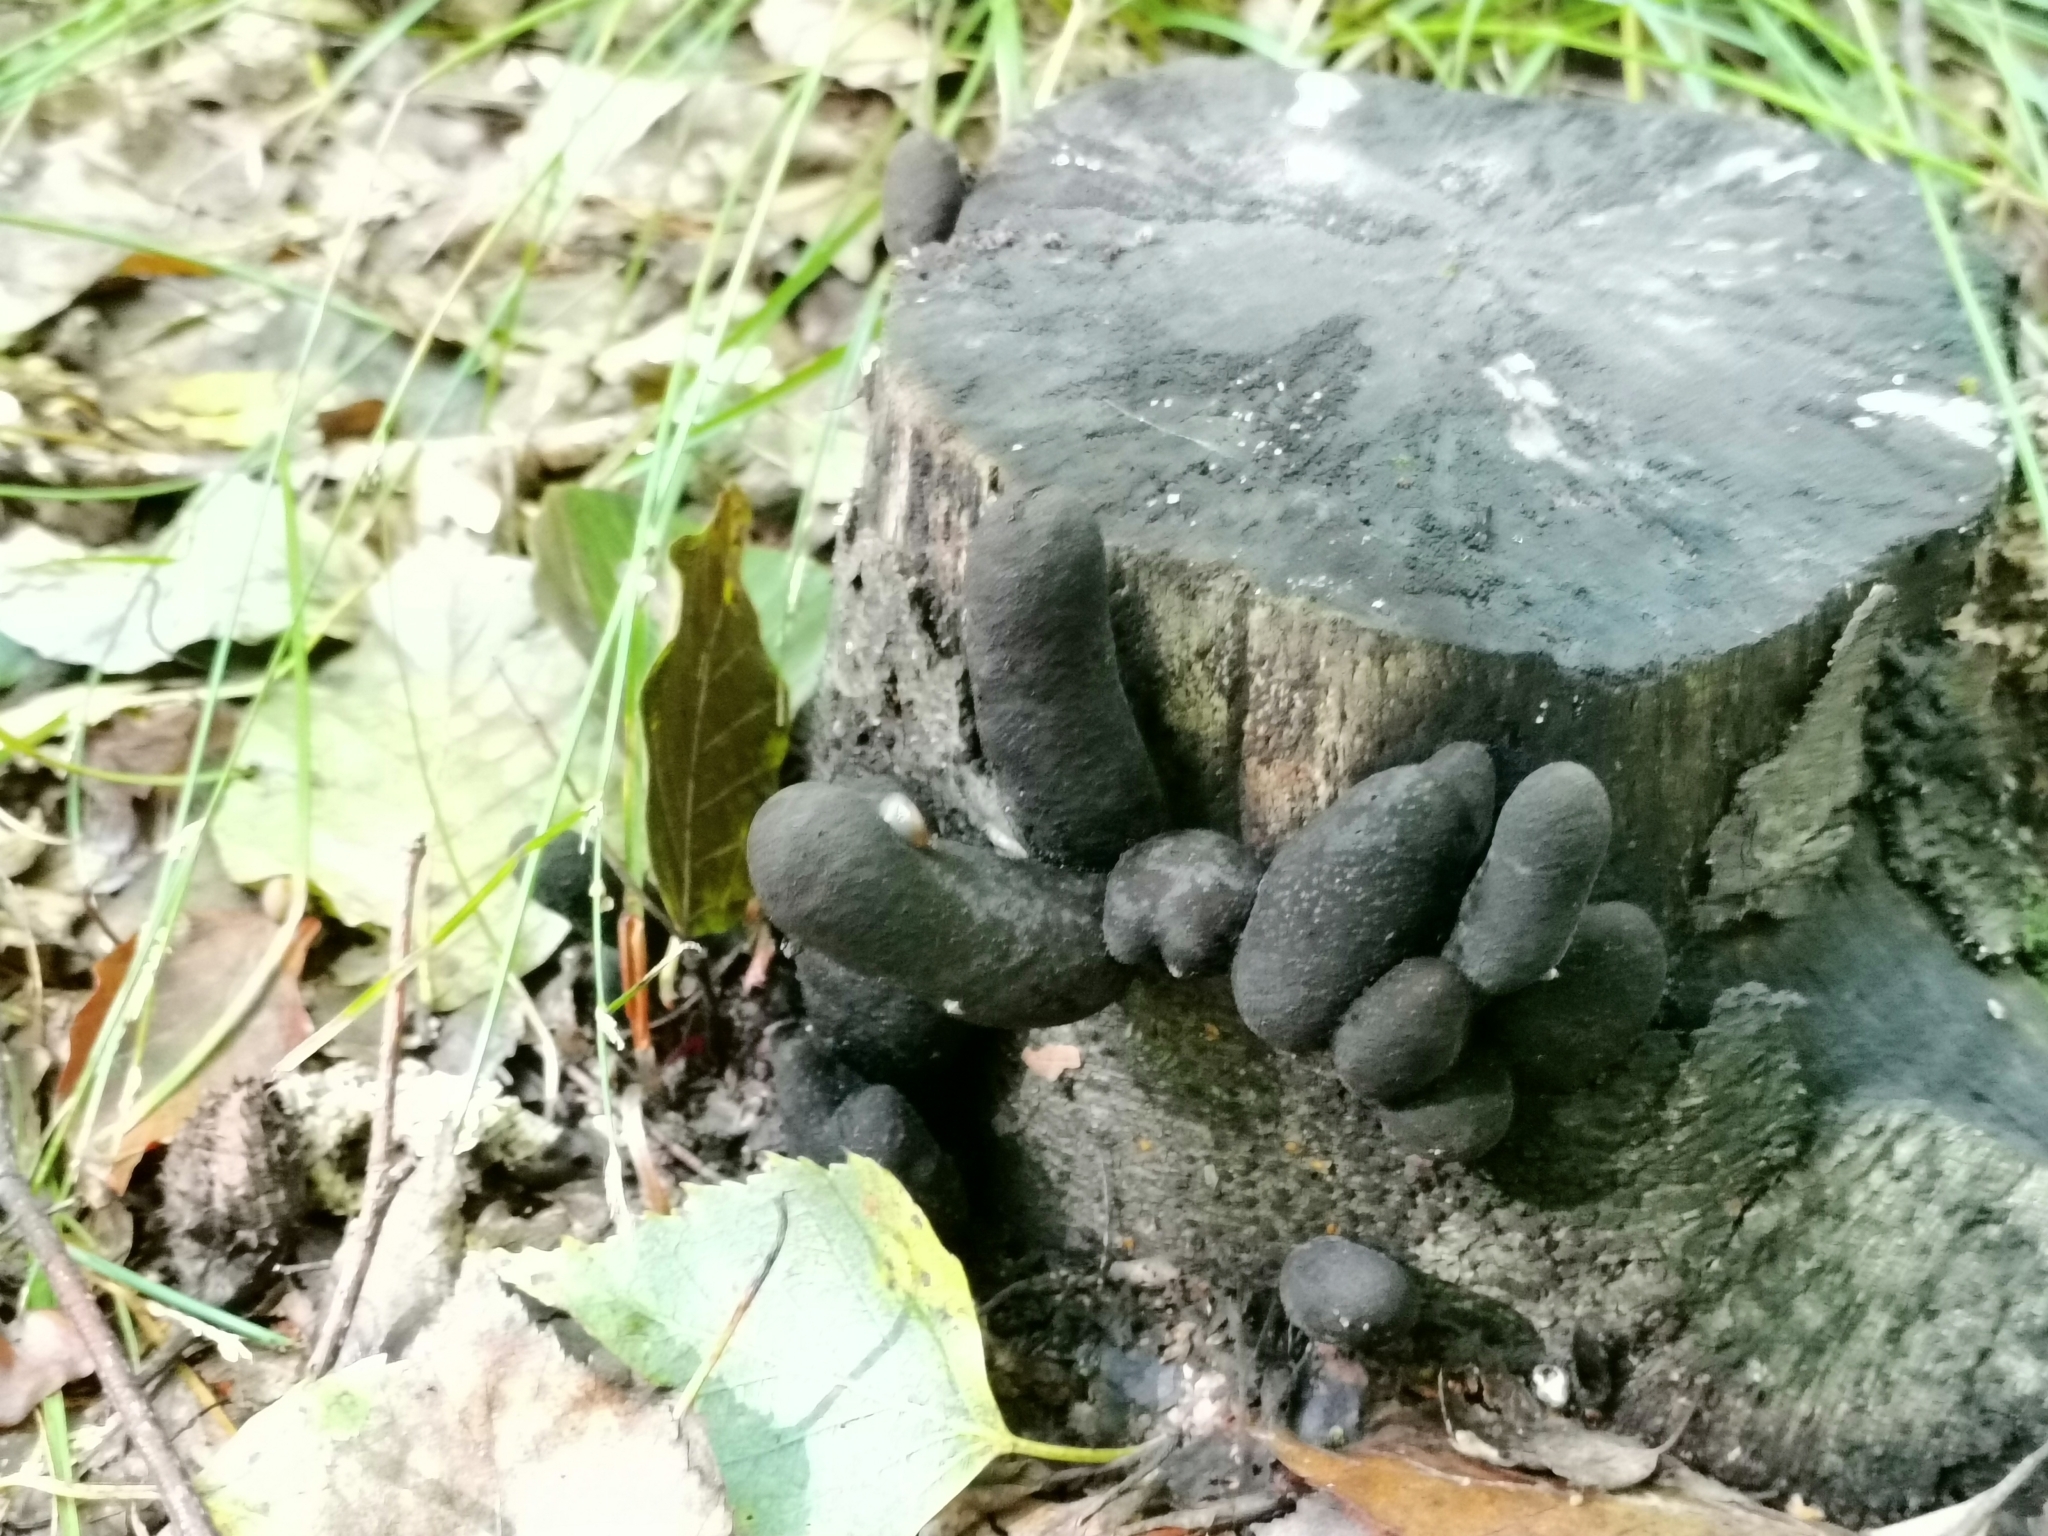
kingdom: Fungi
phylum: Ascomycota
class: Sordariomycetes
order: Xylariales
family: Xylariaceae
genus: Xylaria
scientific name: Xylaria polymorpha
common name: Dead man's fingers
